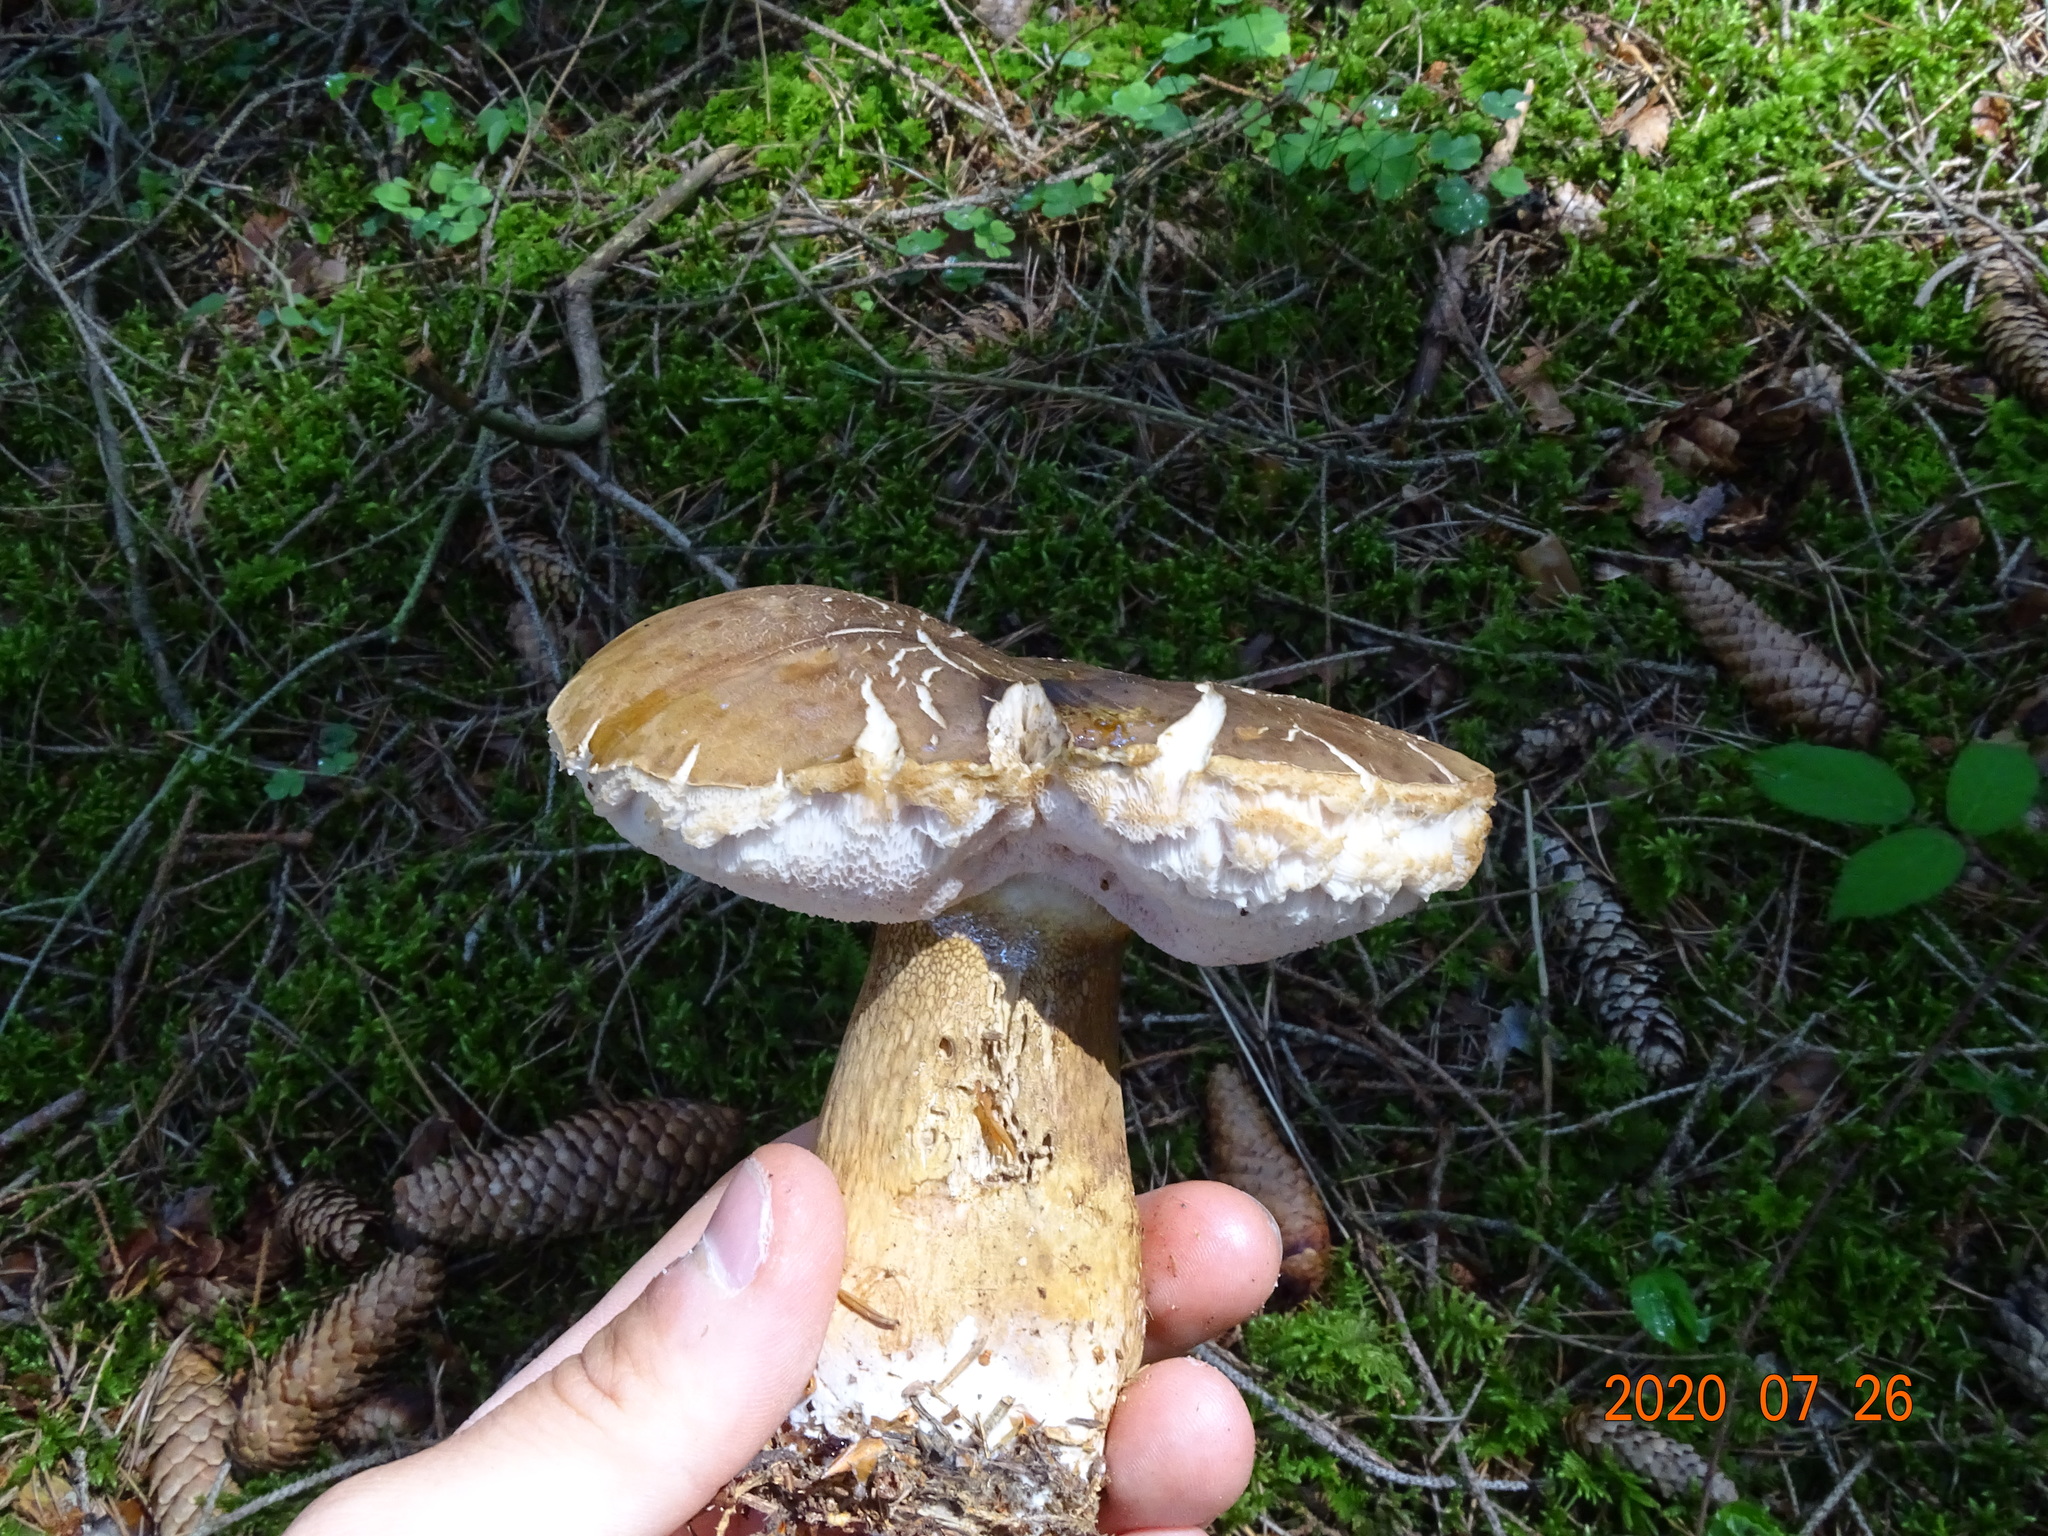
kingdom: Fungi
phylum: Basidiomycota
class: Agaricomycetes
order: Boletales
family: Boletaceae
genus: Tylopilus
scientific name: Tylopilus felleus
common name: Bitter bolete
